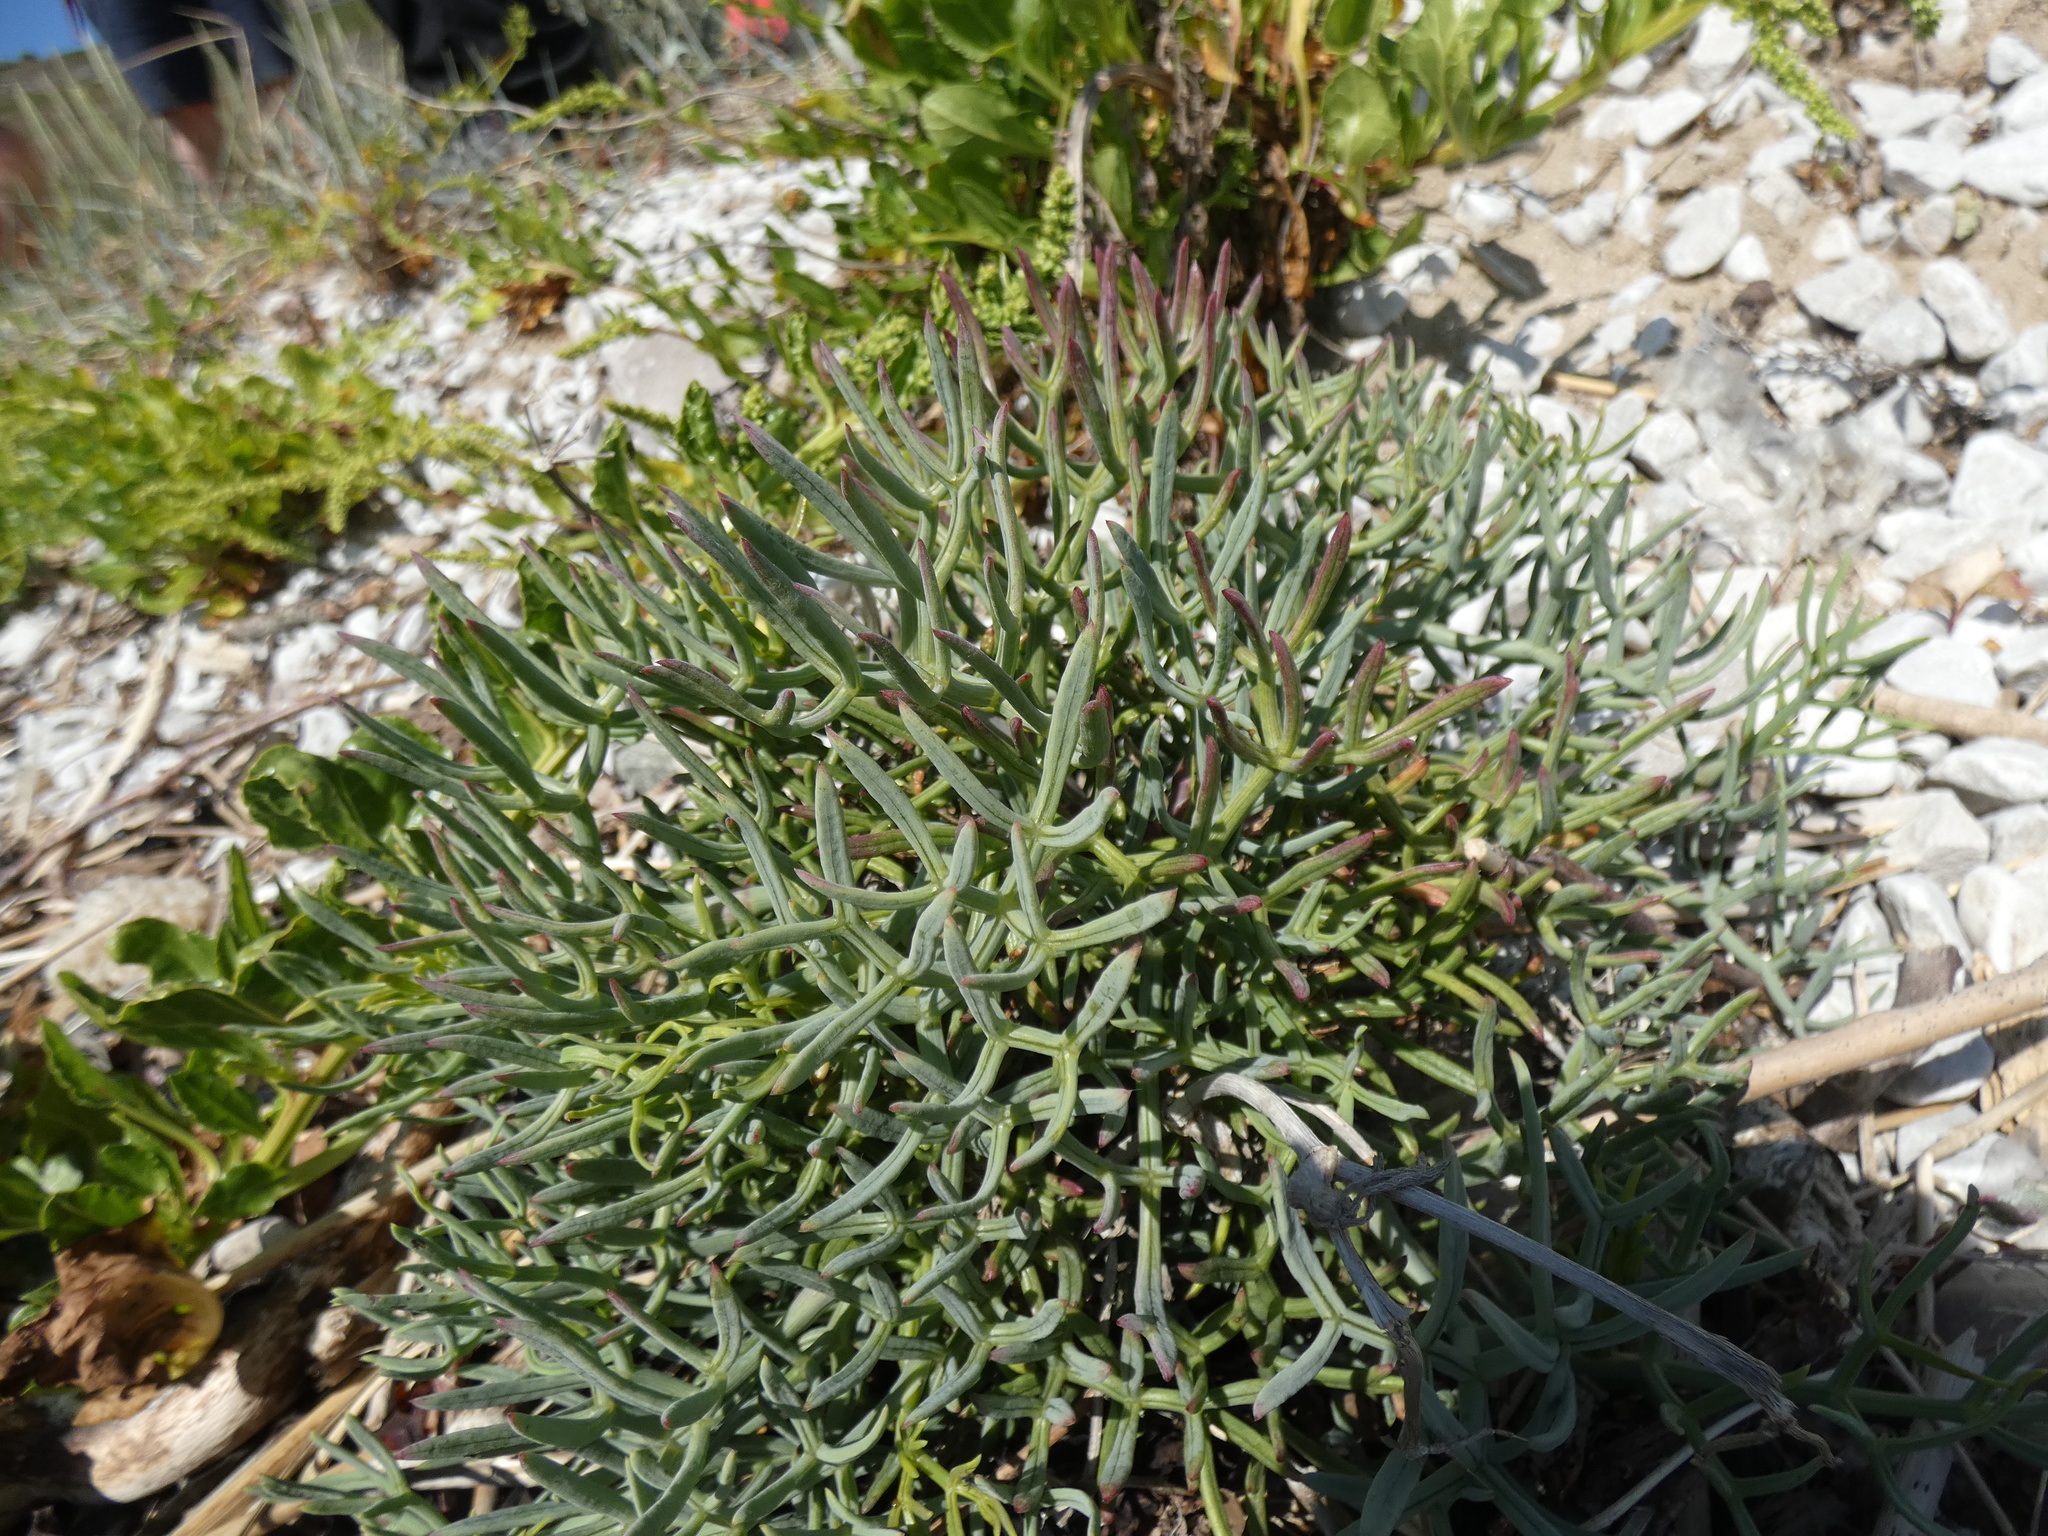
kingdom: Plantae
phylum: Tracheophyta
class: Magnoliopsida
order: Apiales
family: Apiaceae
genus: Crithmum
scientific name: Crithmum maritimum
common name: Rock samphire
